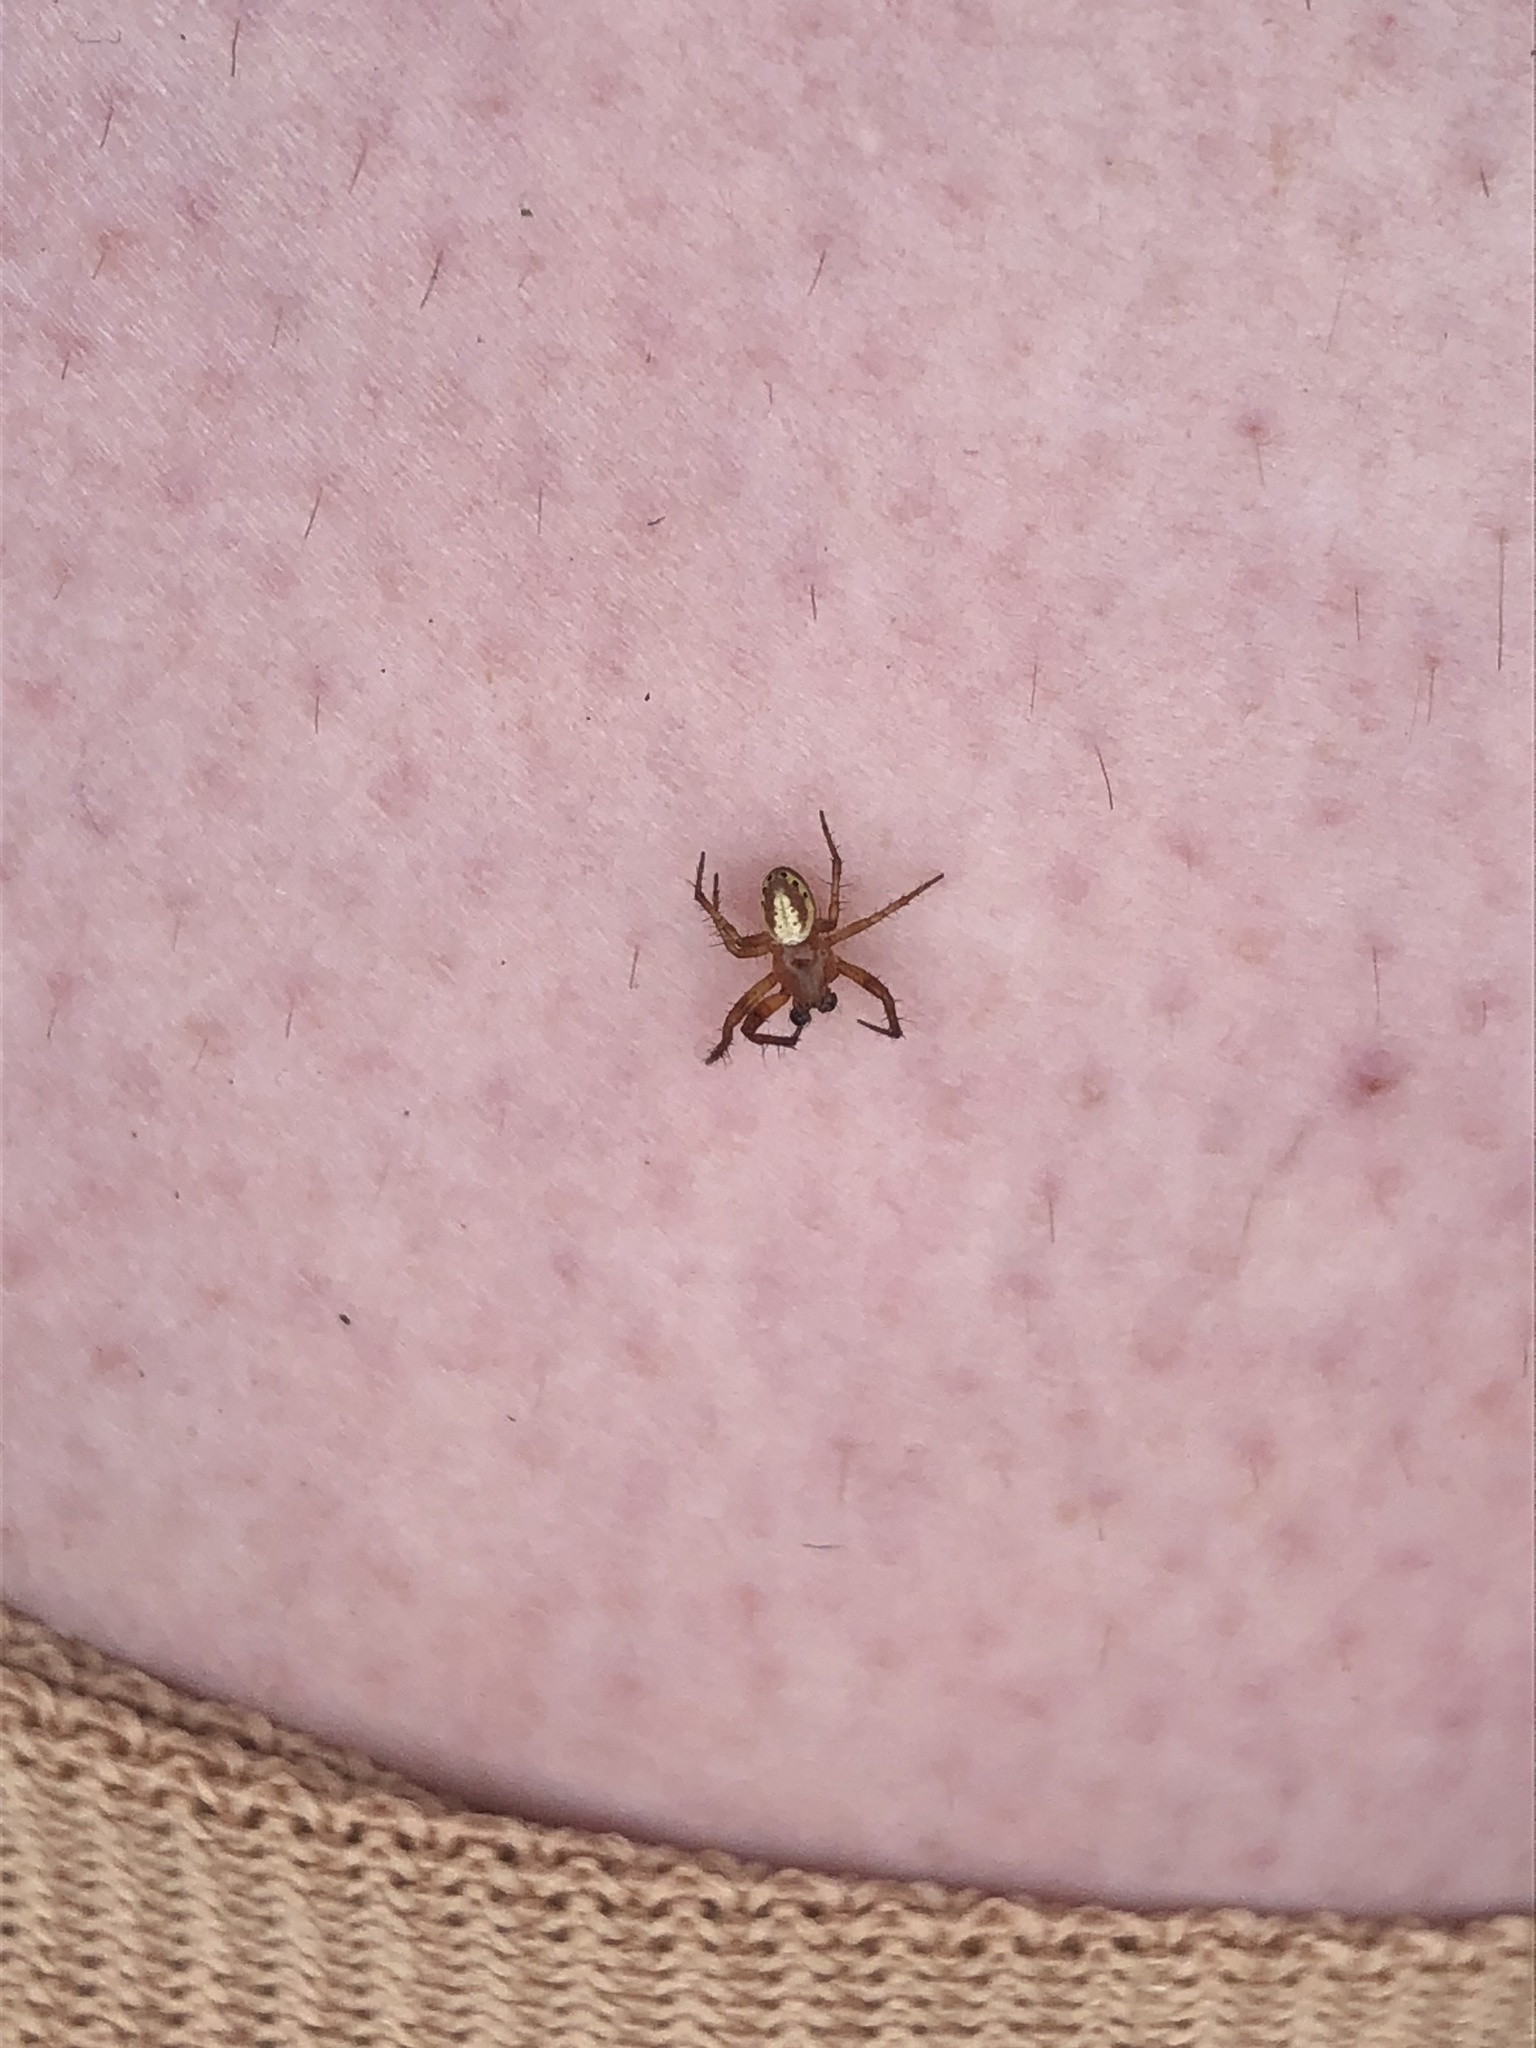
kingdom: Animalia
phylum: Arthropoda
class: Arachnida
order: Araneae
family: Araneidae
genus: Araniella
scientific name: Araniella displicata
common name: Sixspotted orb weaver
